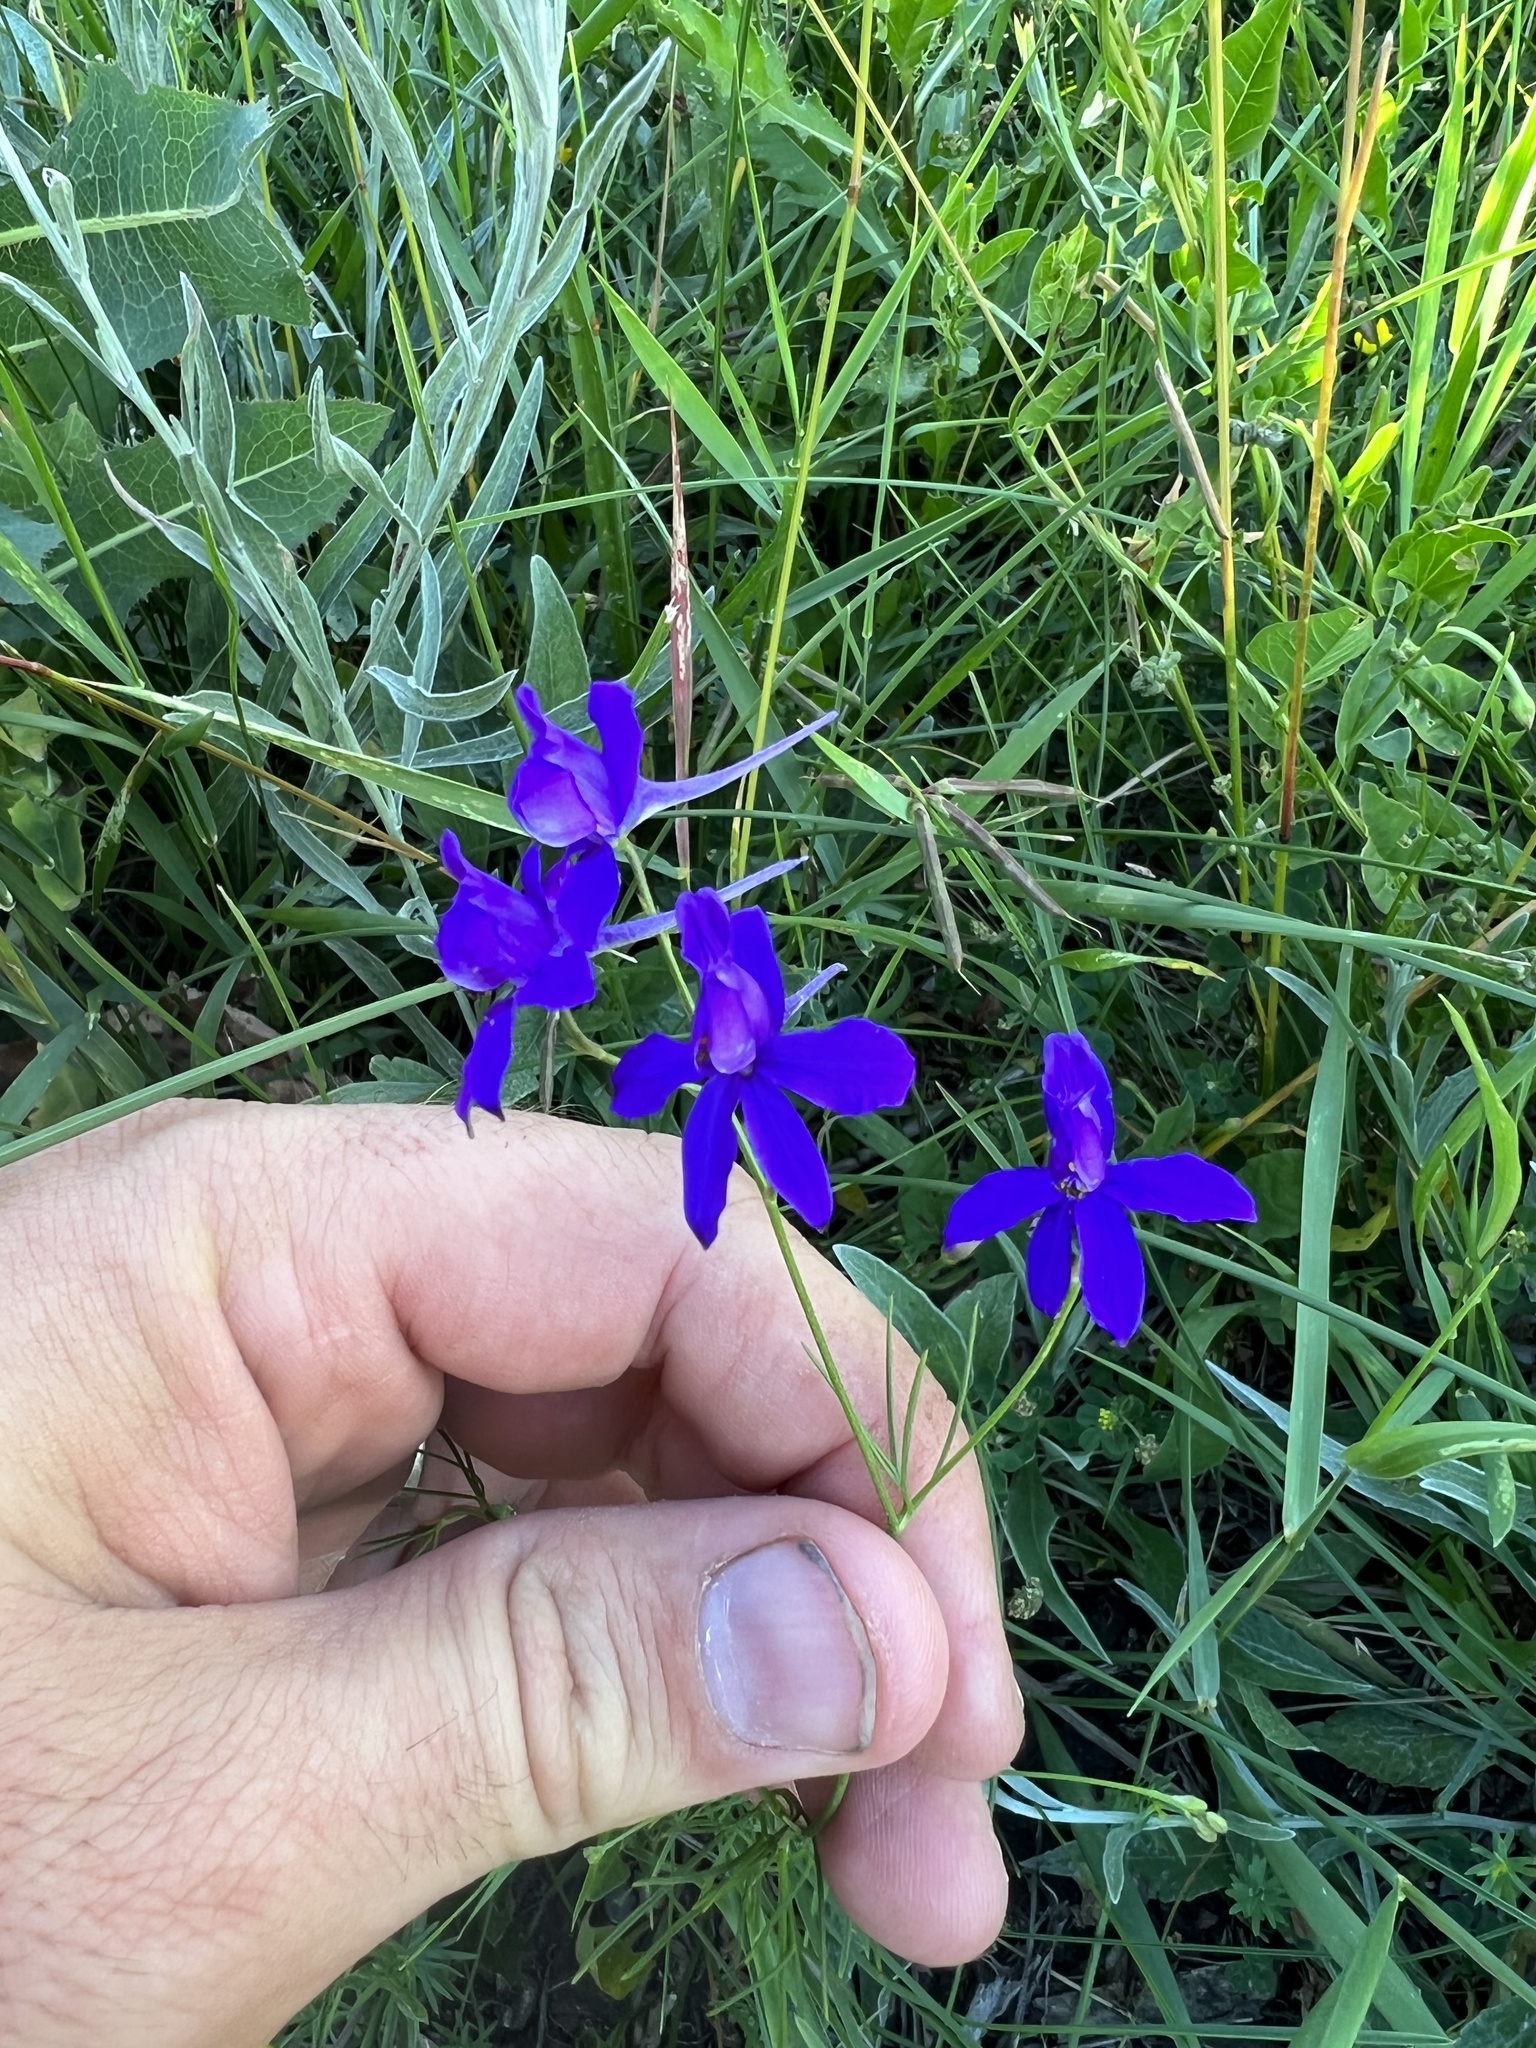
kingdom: Plantae
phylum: Tracheophyta
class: Magnoliopsida
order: Ranunculales
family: Ranunculaceae
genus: Delphinium
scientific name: Delphinium consolida
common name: Branching larkspur
